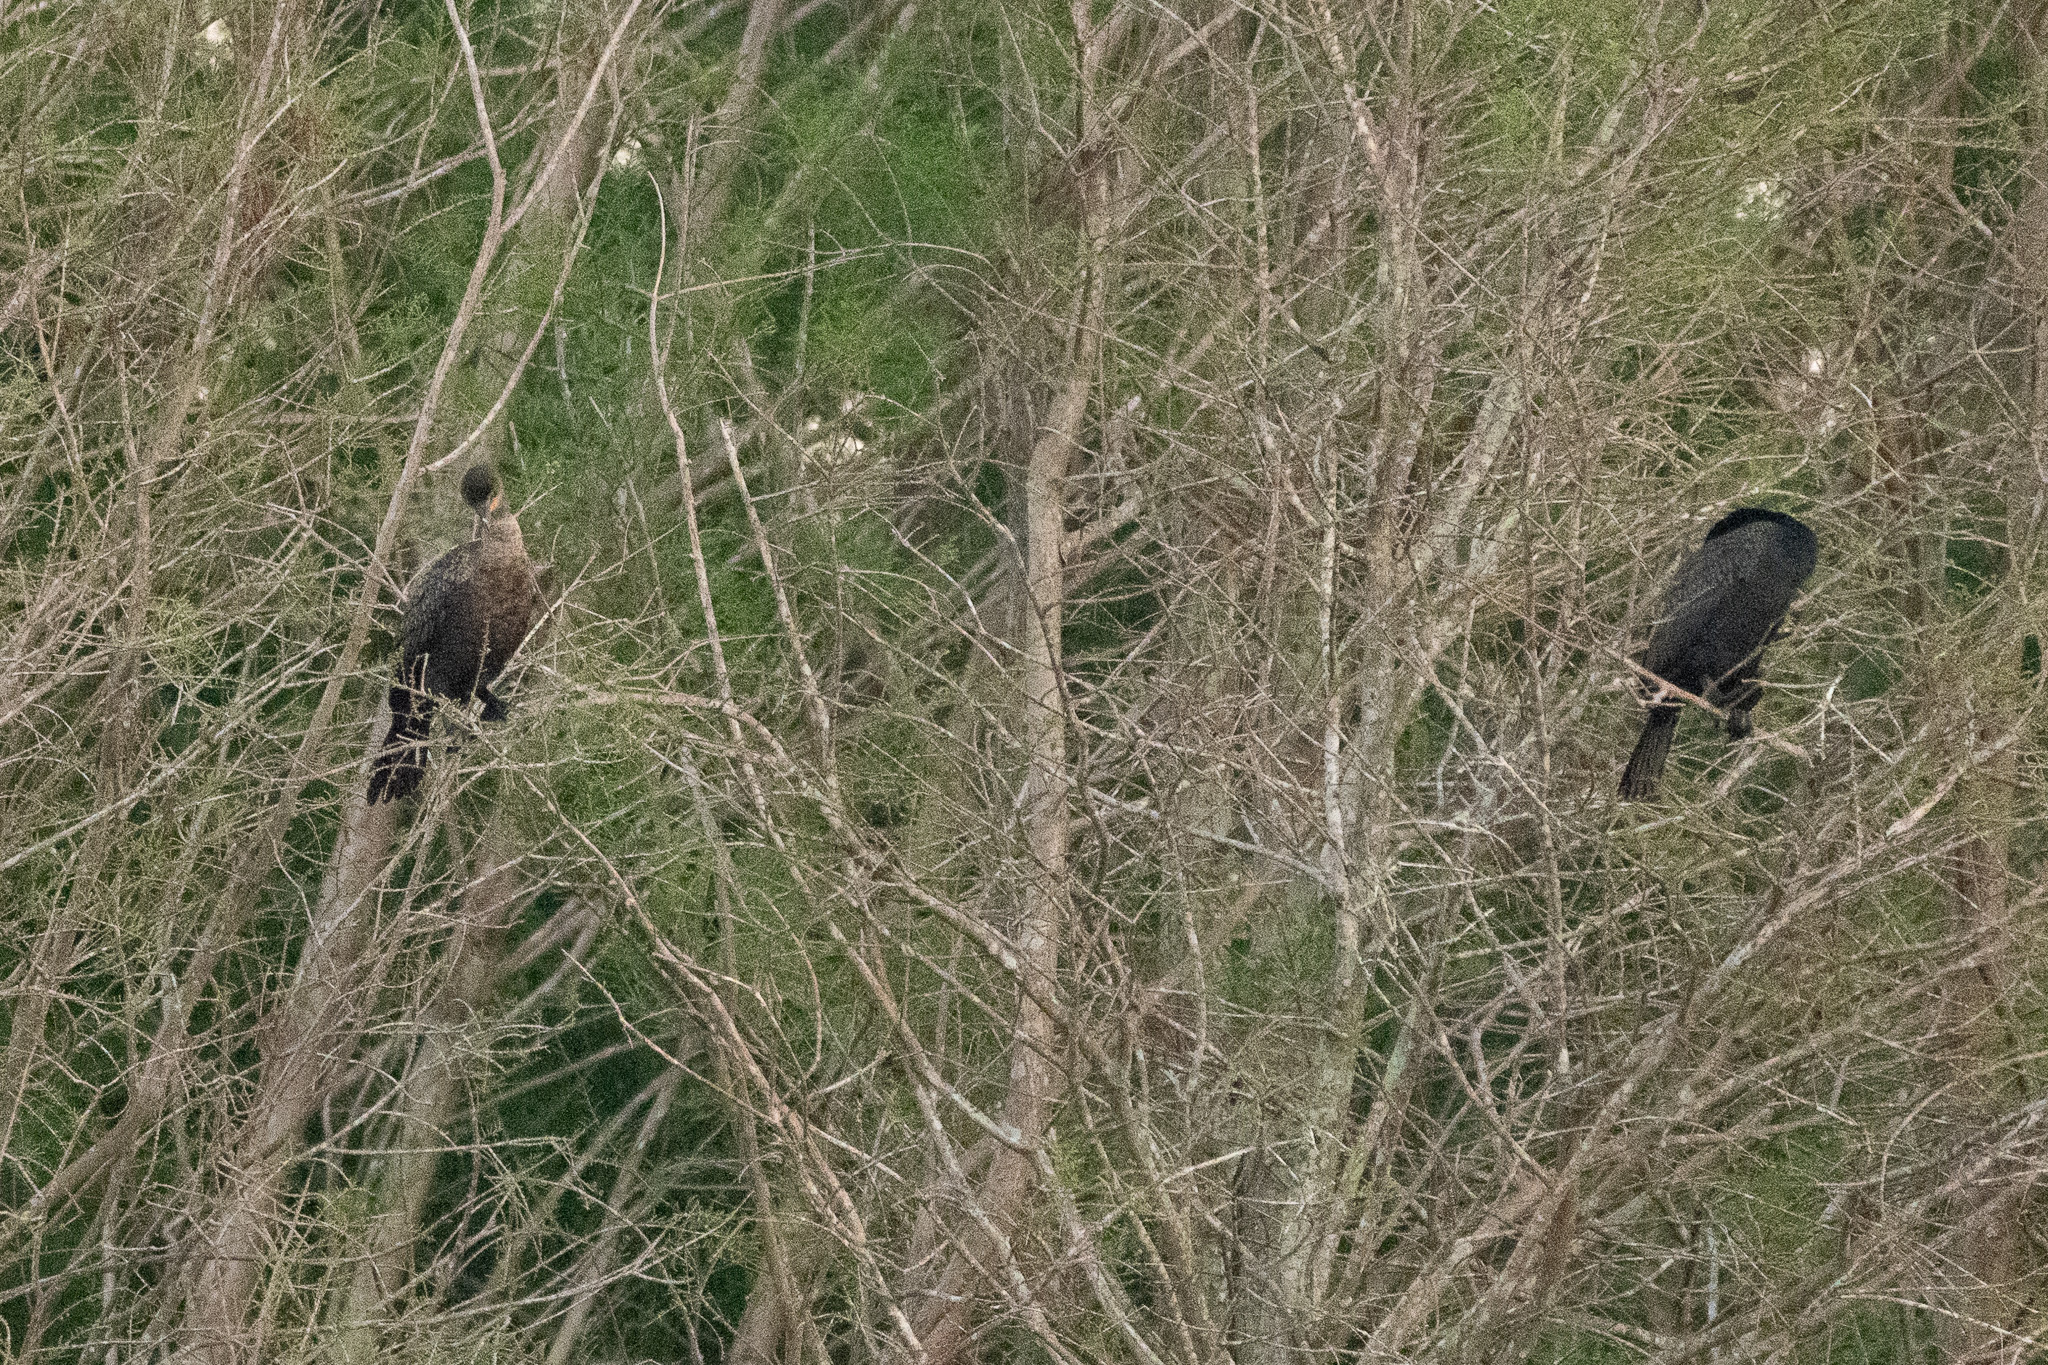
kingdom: Animalia
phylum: Chordata
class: Aves
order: Suliformes
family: Phalacrocoracidae
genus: Phalacrocorax
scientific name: Phalacrocorax auritus
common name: Double-crested cormorant
